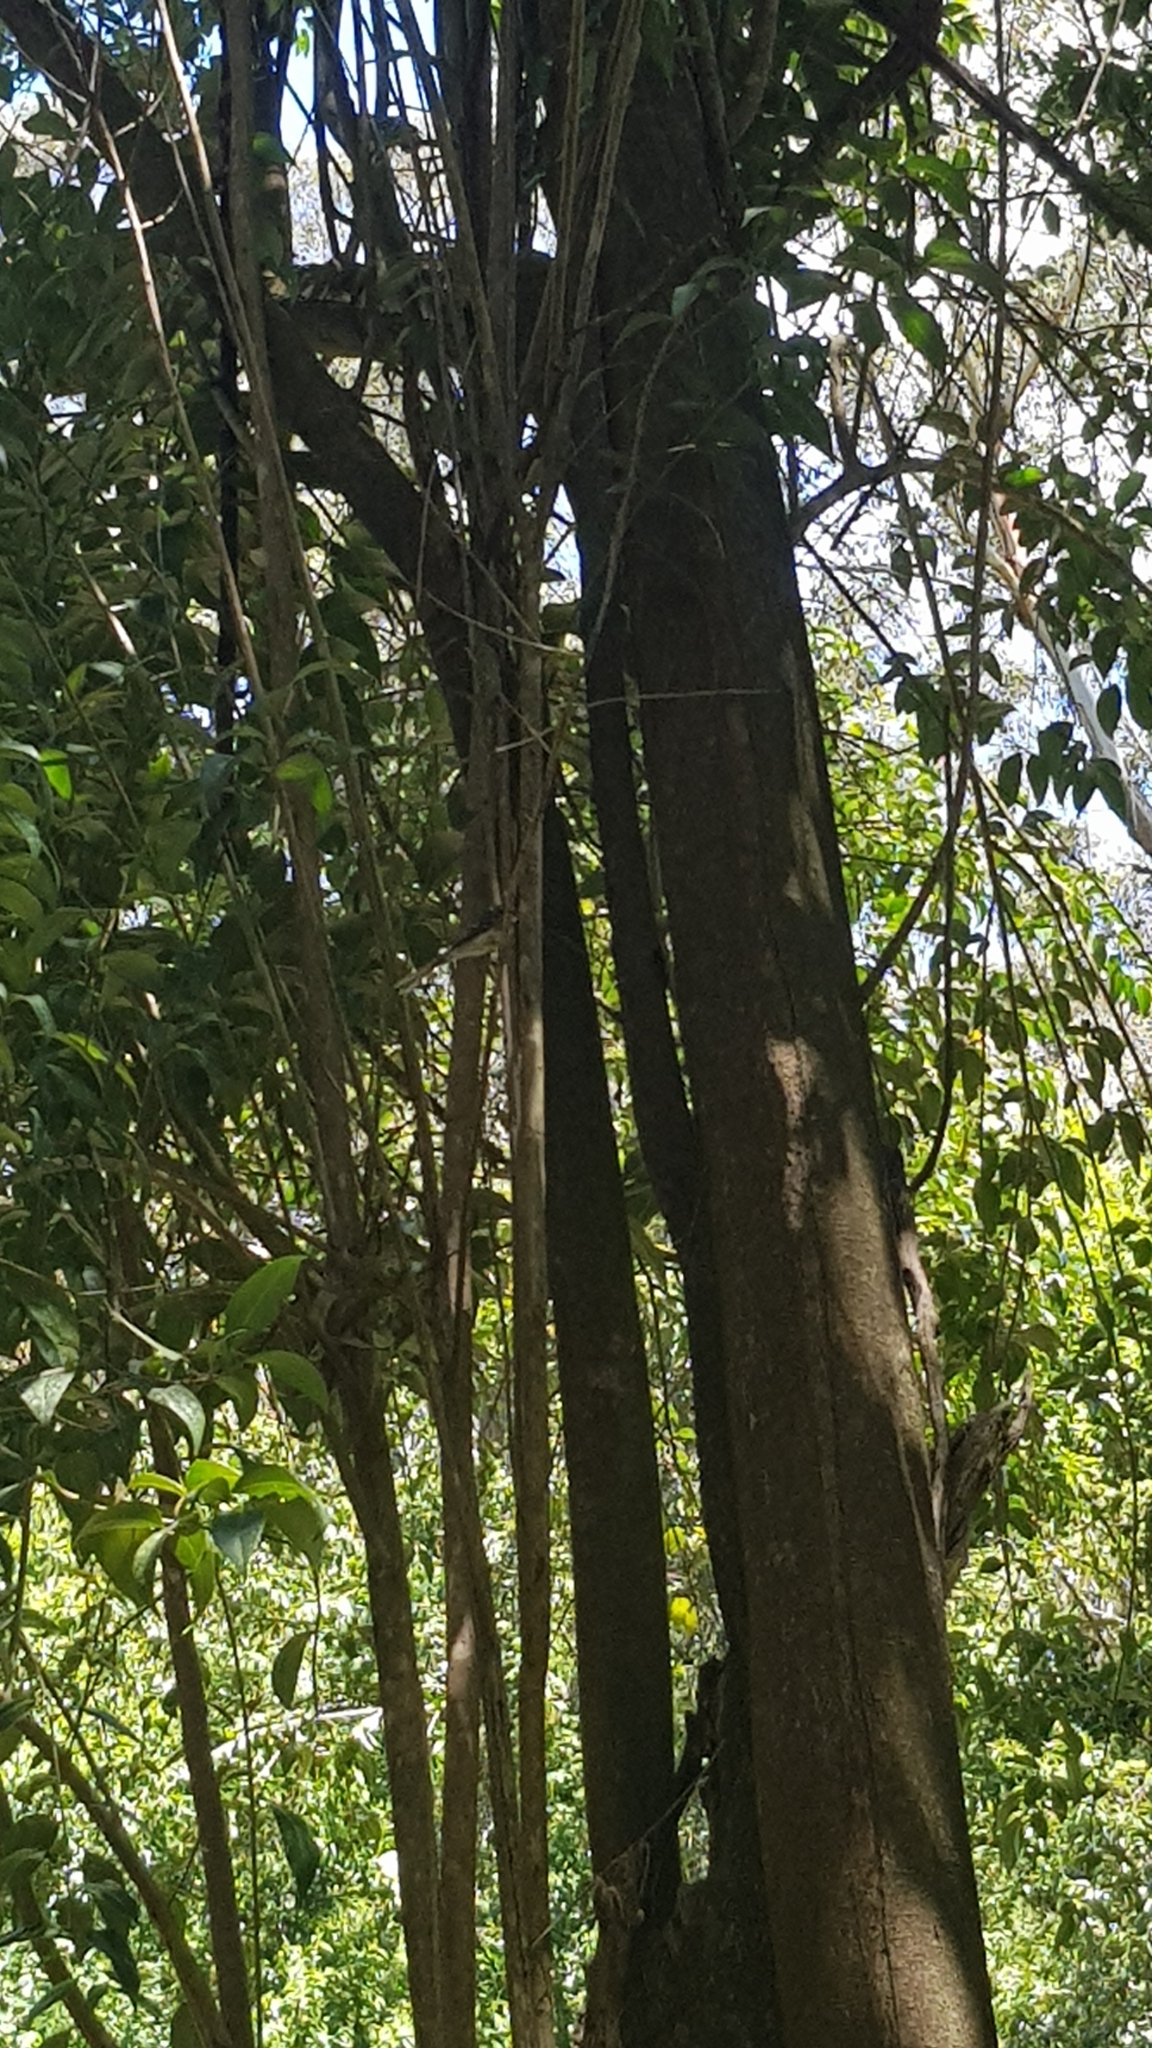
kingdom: Animalia
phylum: Chordata
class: Aves
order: Passeriformes
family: Rhipiduridae
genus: Rhipidura
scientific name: Rhipidura albiscapa
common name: Grey fantail
